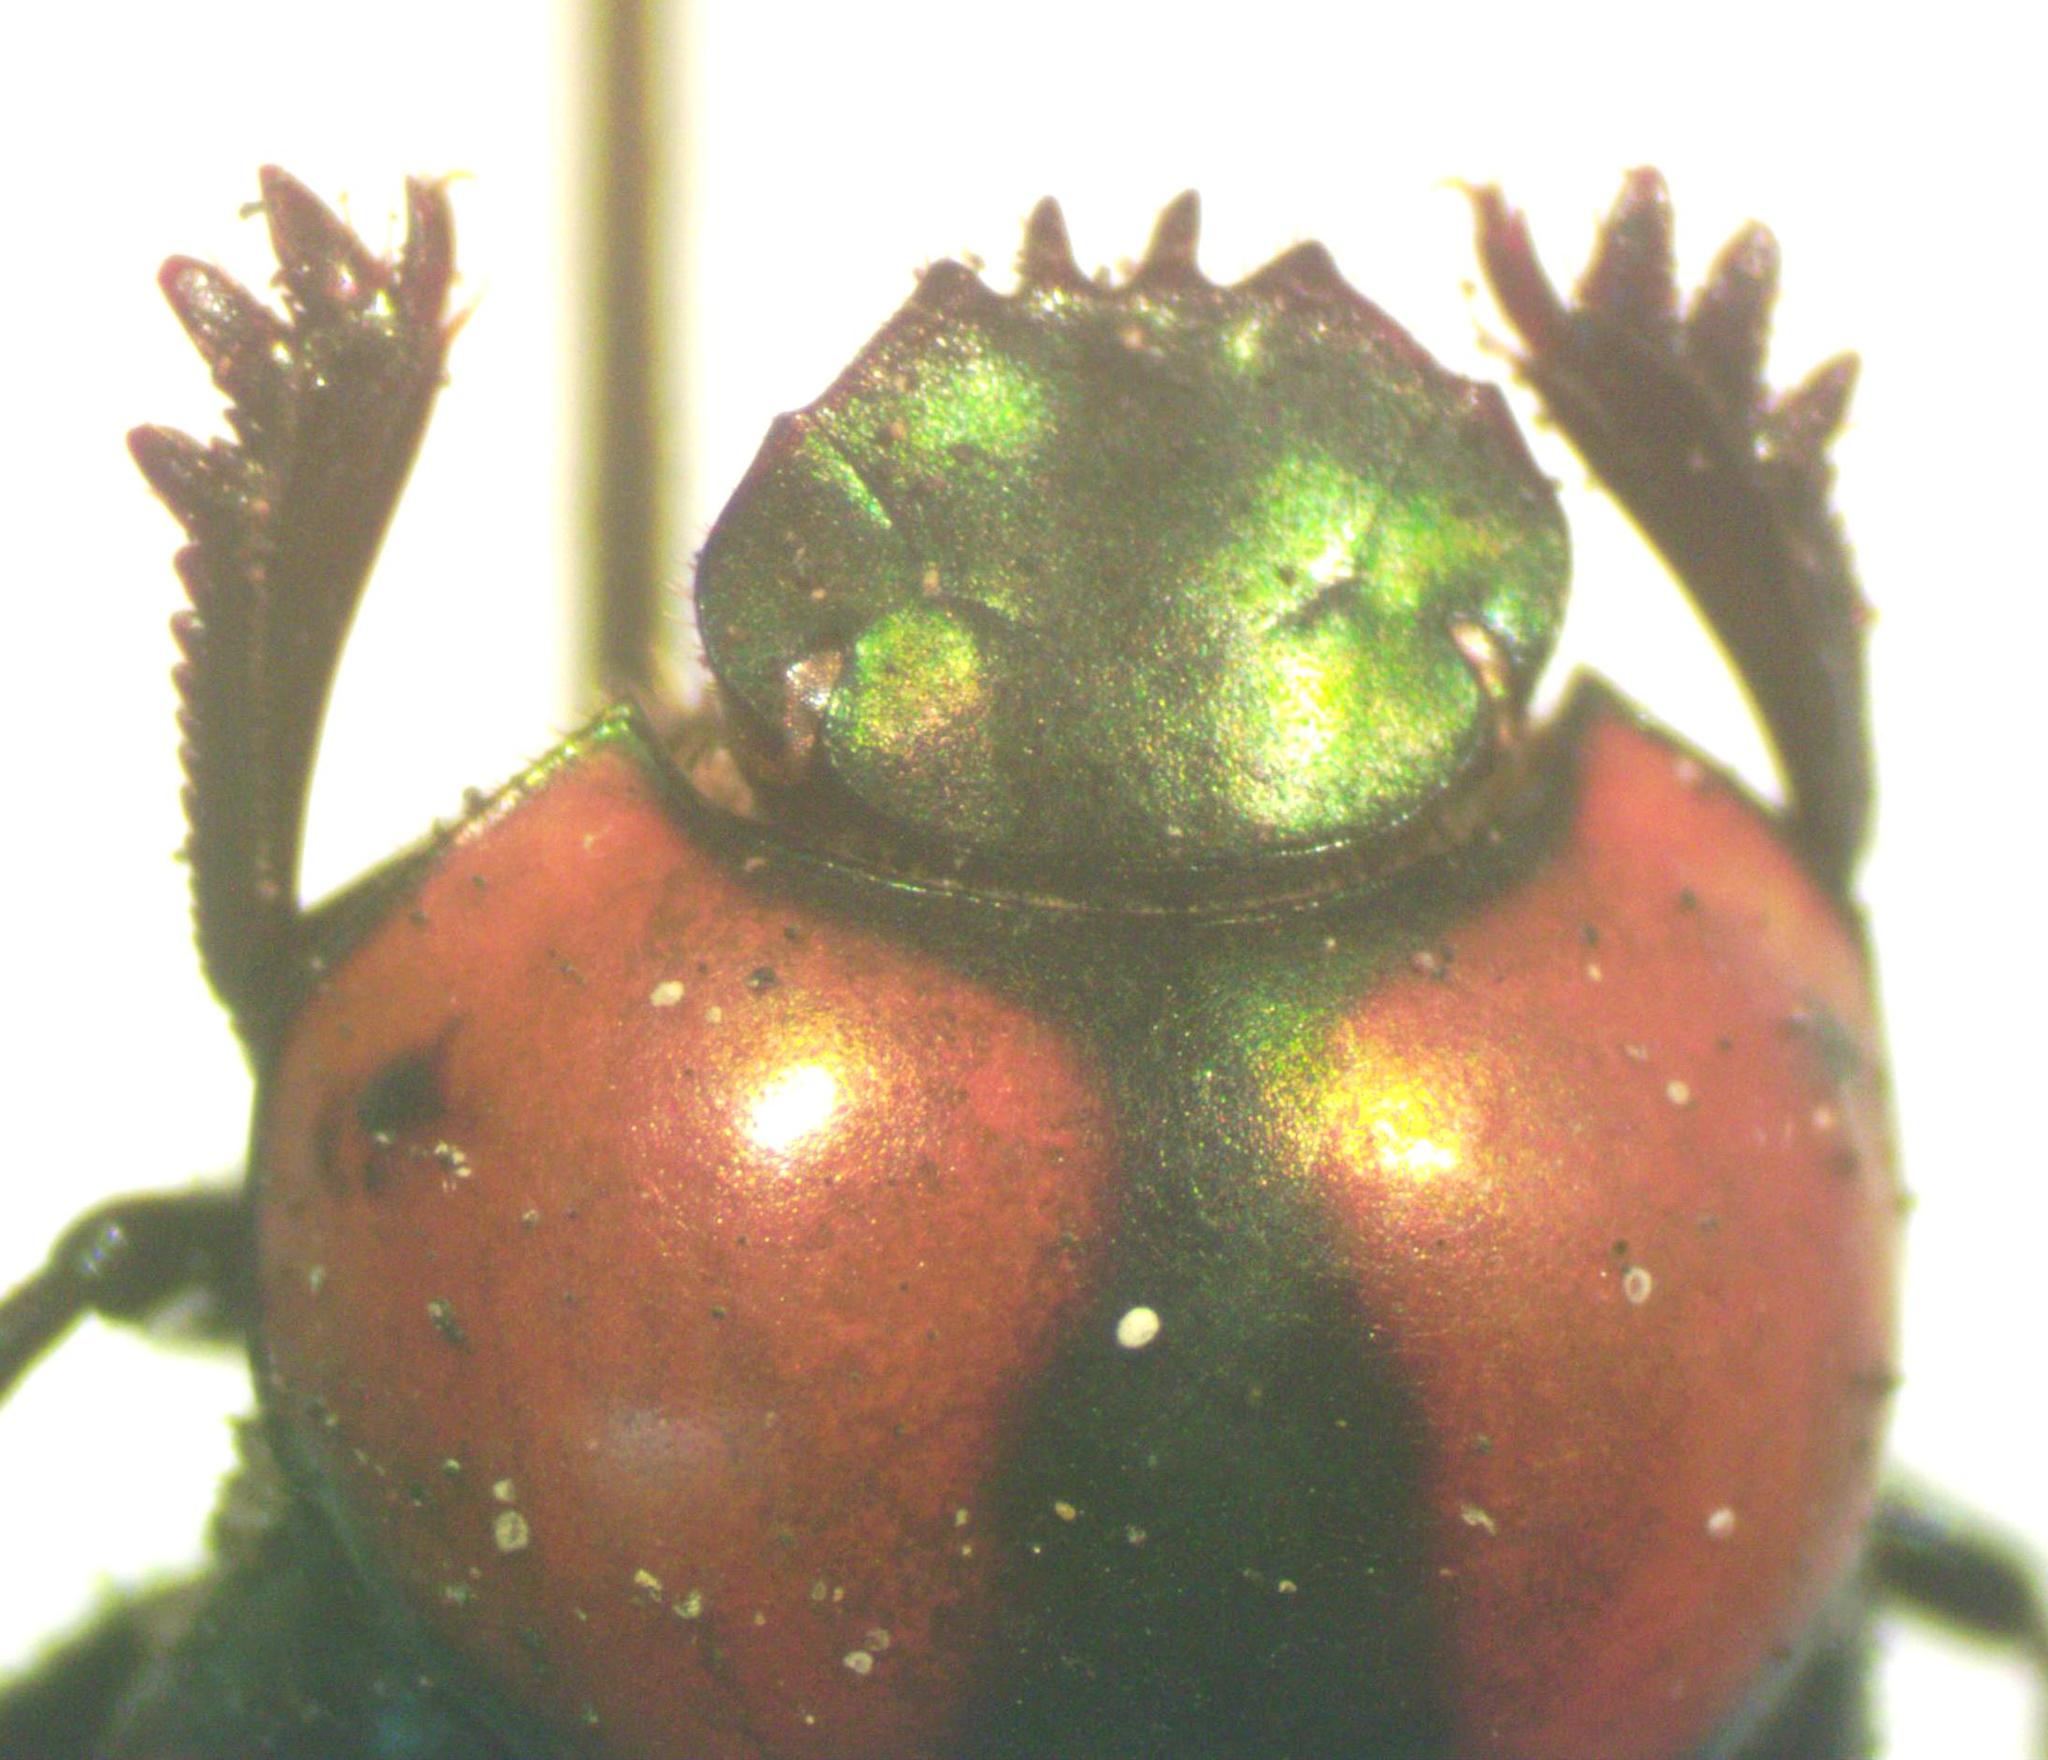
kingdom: Animalia
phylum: Arthropoda
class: Insecta
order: Coleoptera
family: Scarabaeidae
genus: Canthon
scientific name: Canthon cyanellus
